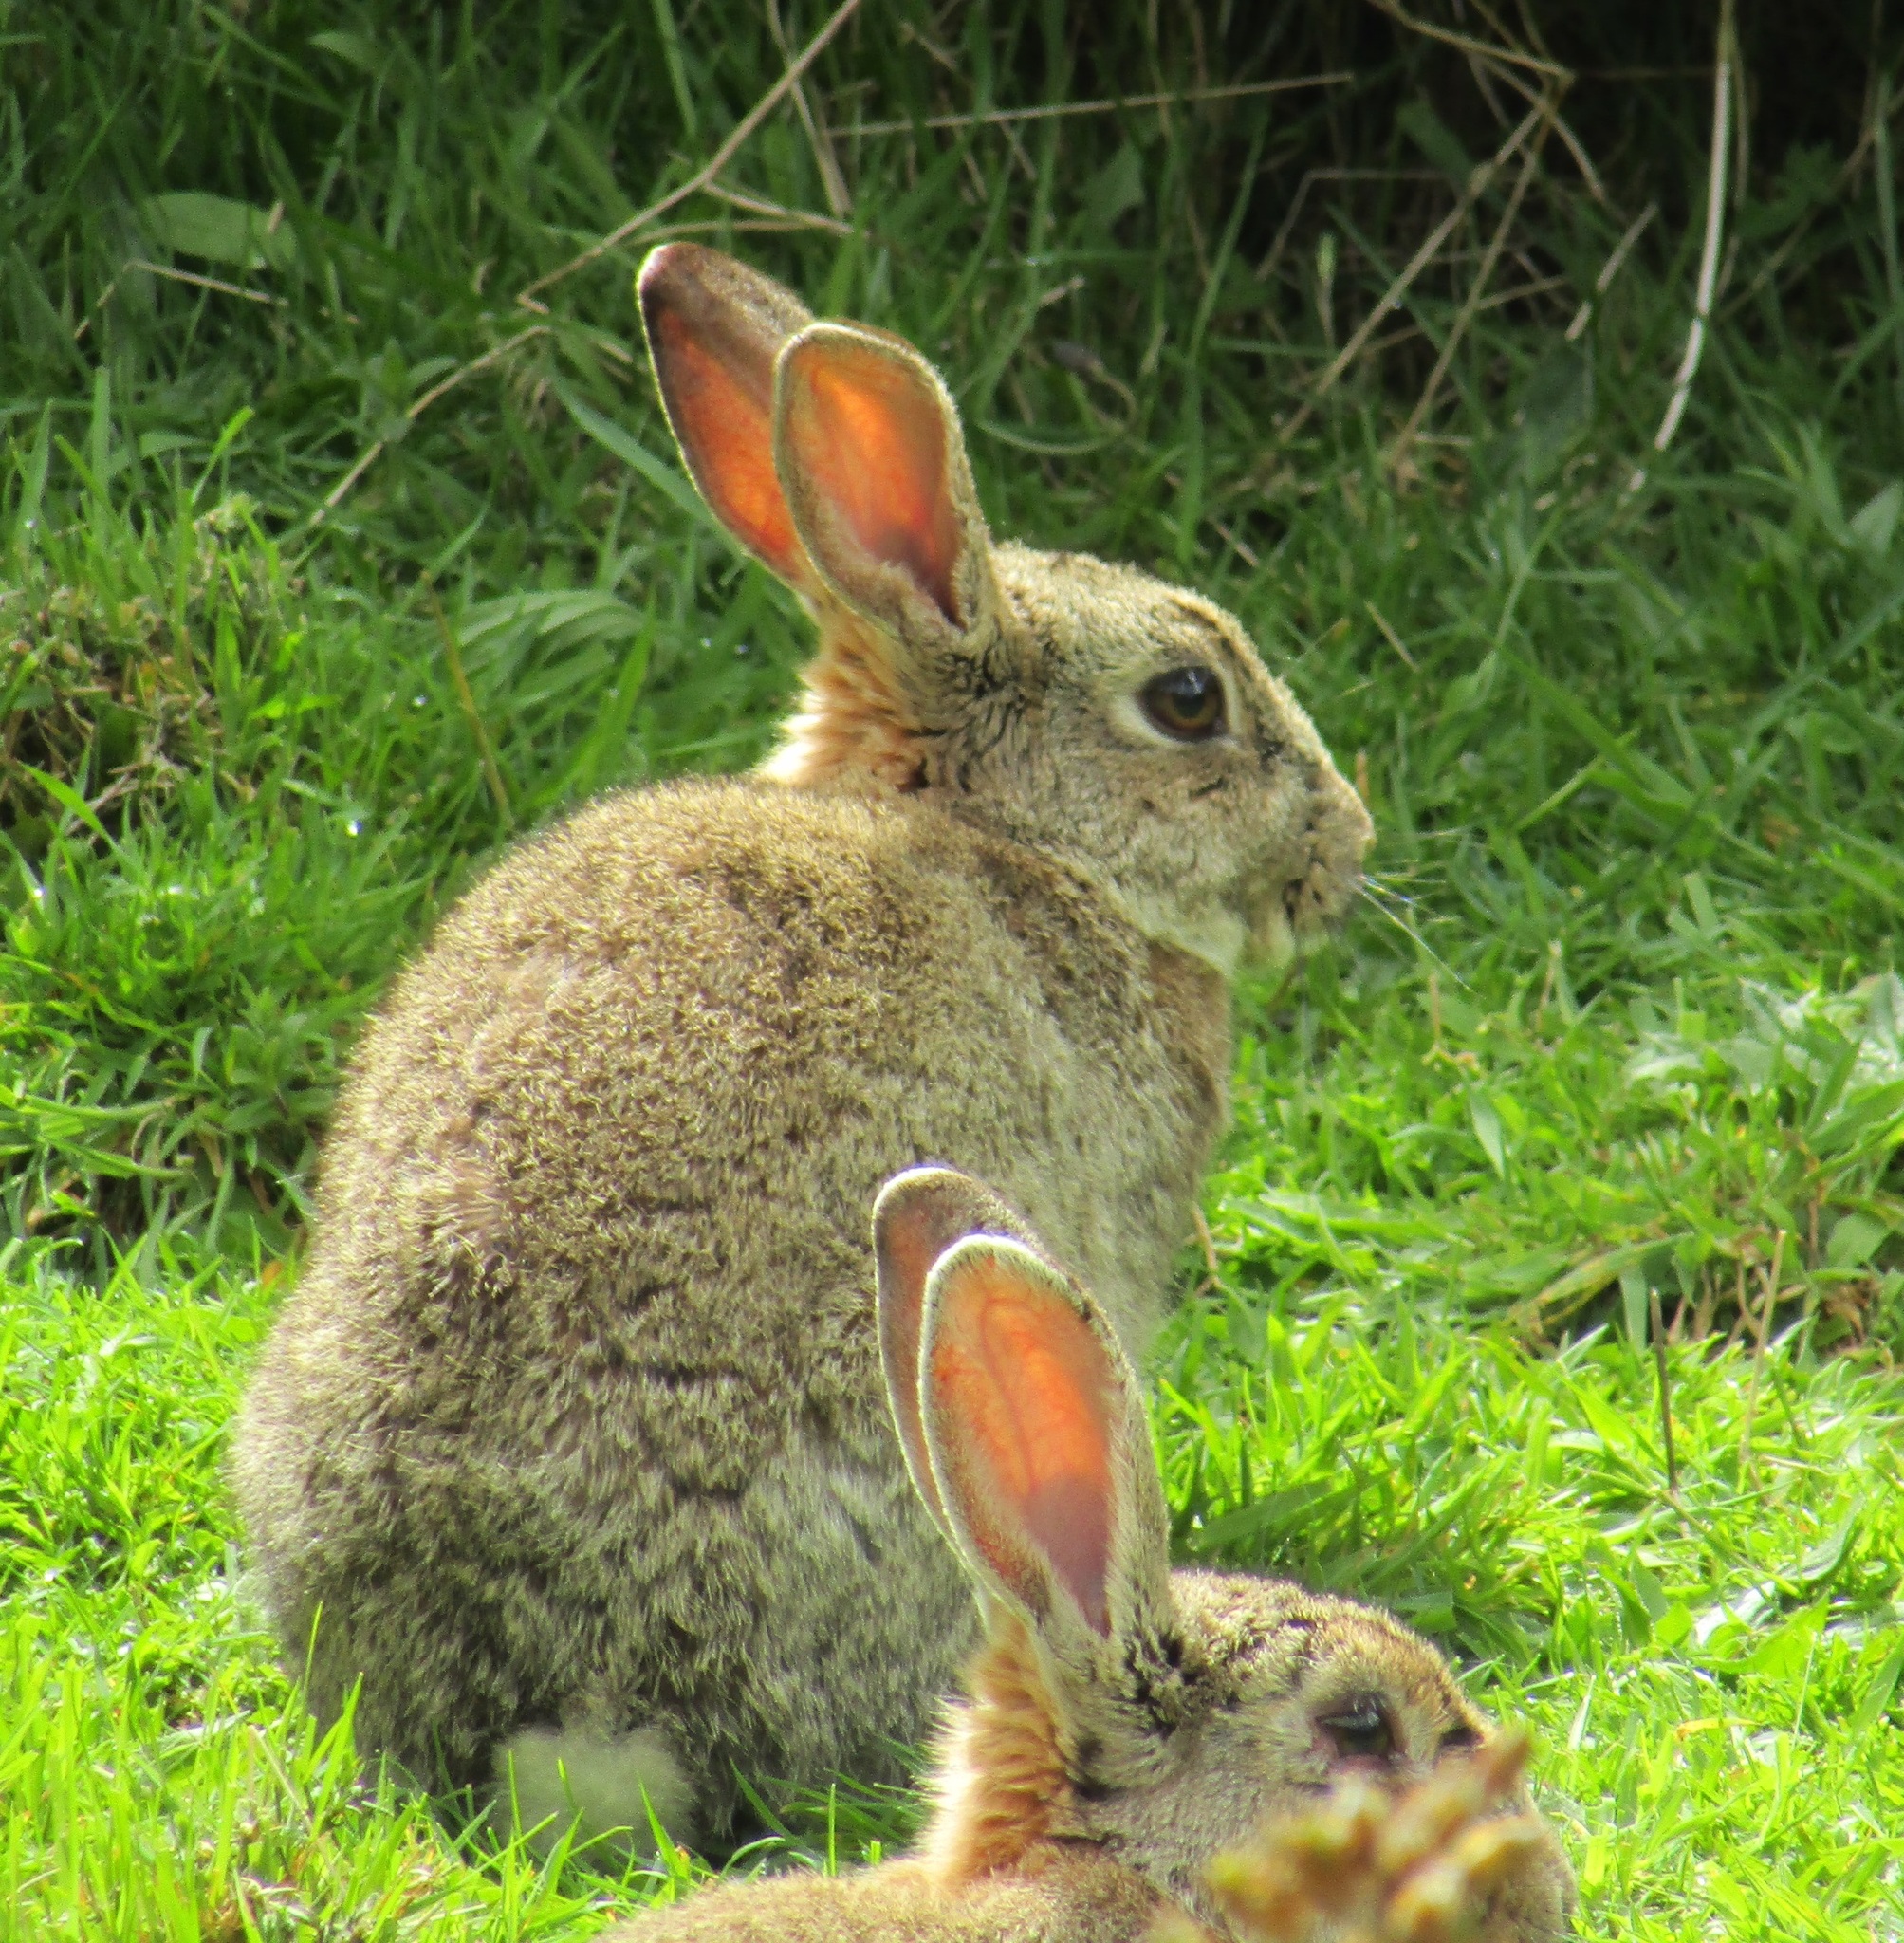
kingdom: Animalia
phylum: Chordata
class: Mammalia
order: Lagomorpha
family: Leporidae
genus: Oryctolagus
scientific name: Oryctolagus cuniculus
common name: European rabbit
